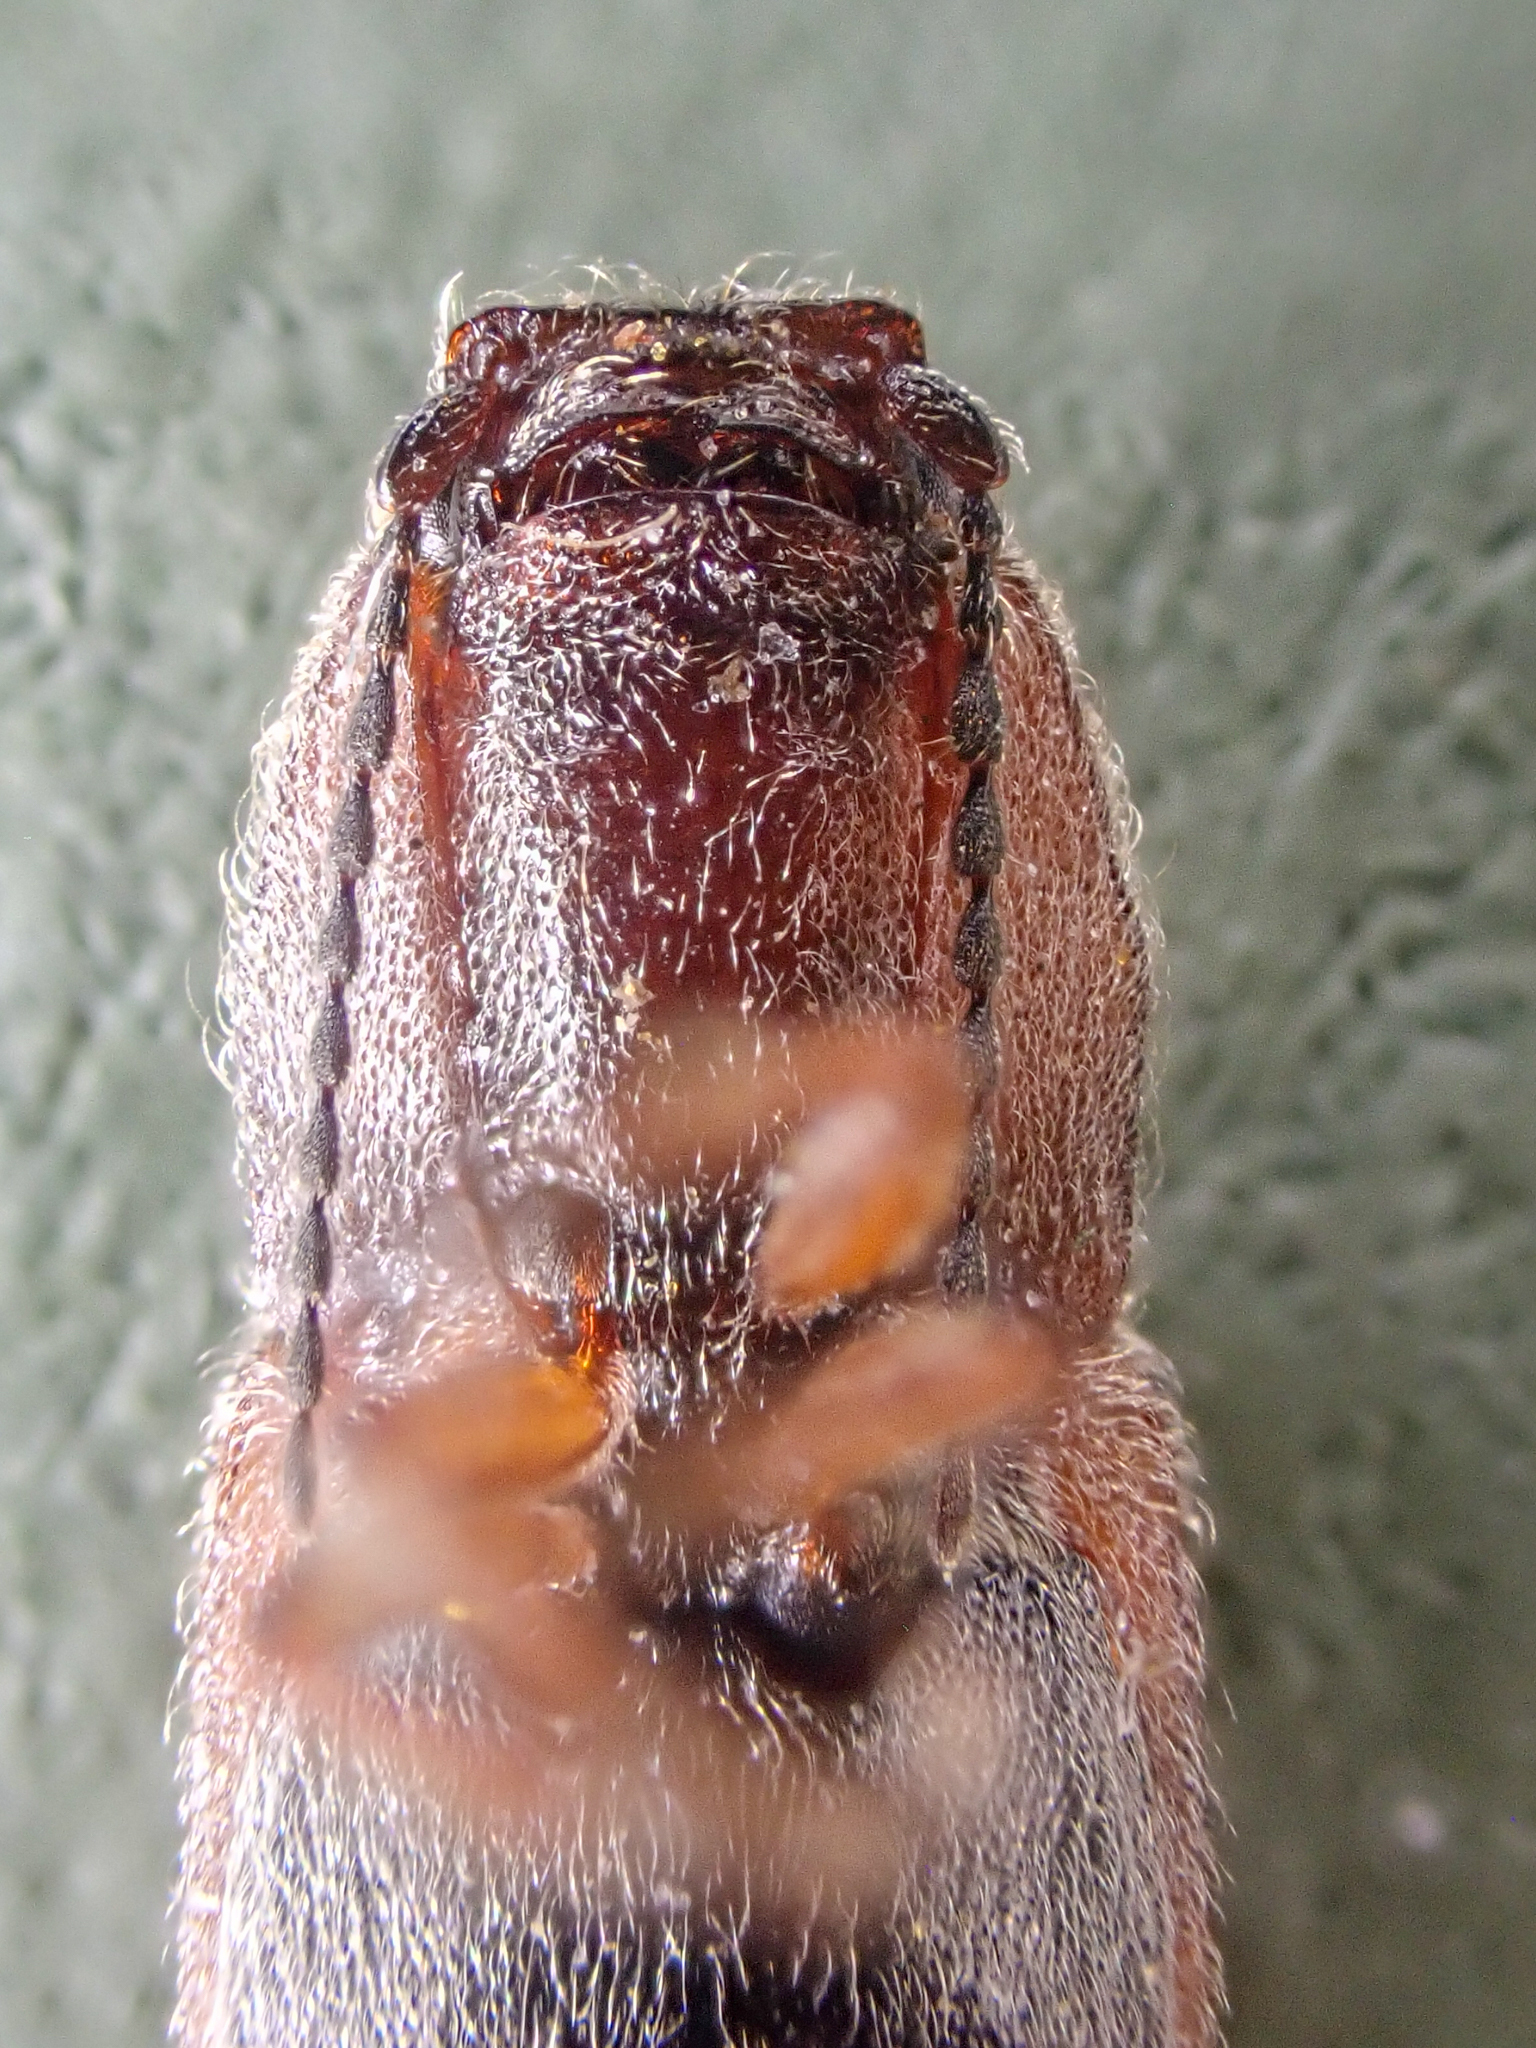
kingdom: Animalia
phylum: Arthropoda
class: Insecta
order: Coleoptera
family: Elateridae
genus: Limonius
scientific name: Limonius canus
